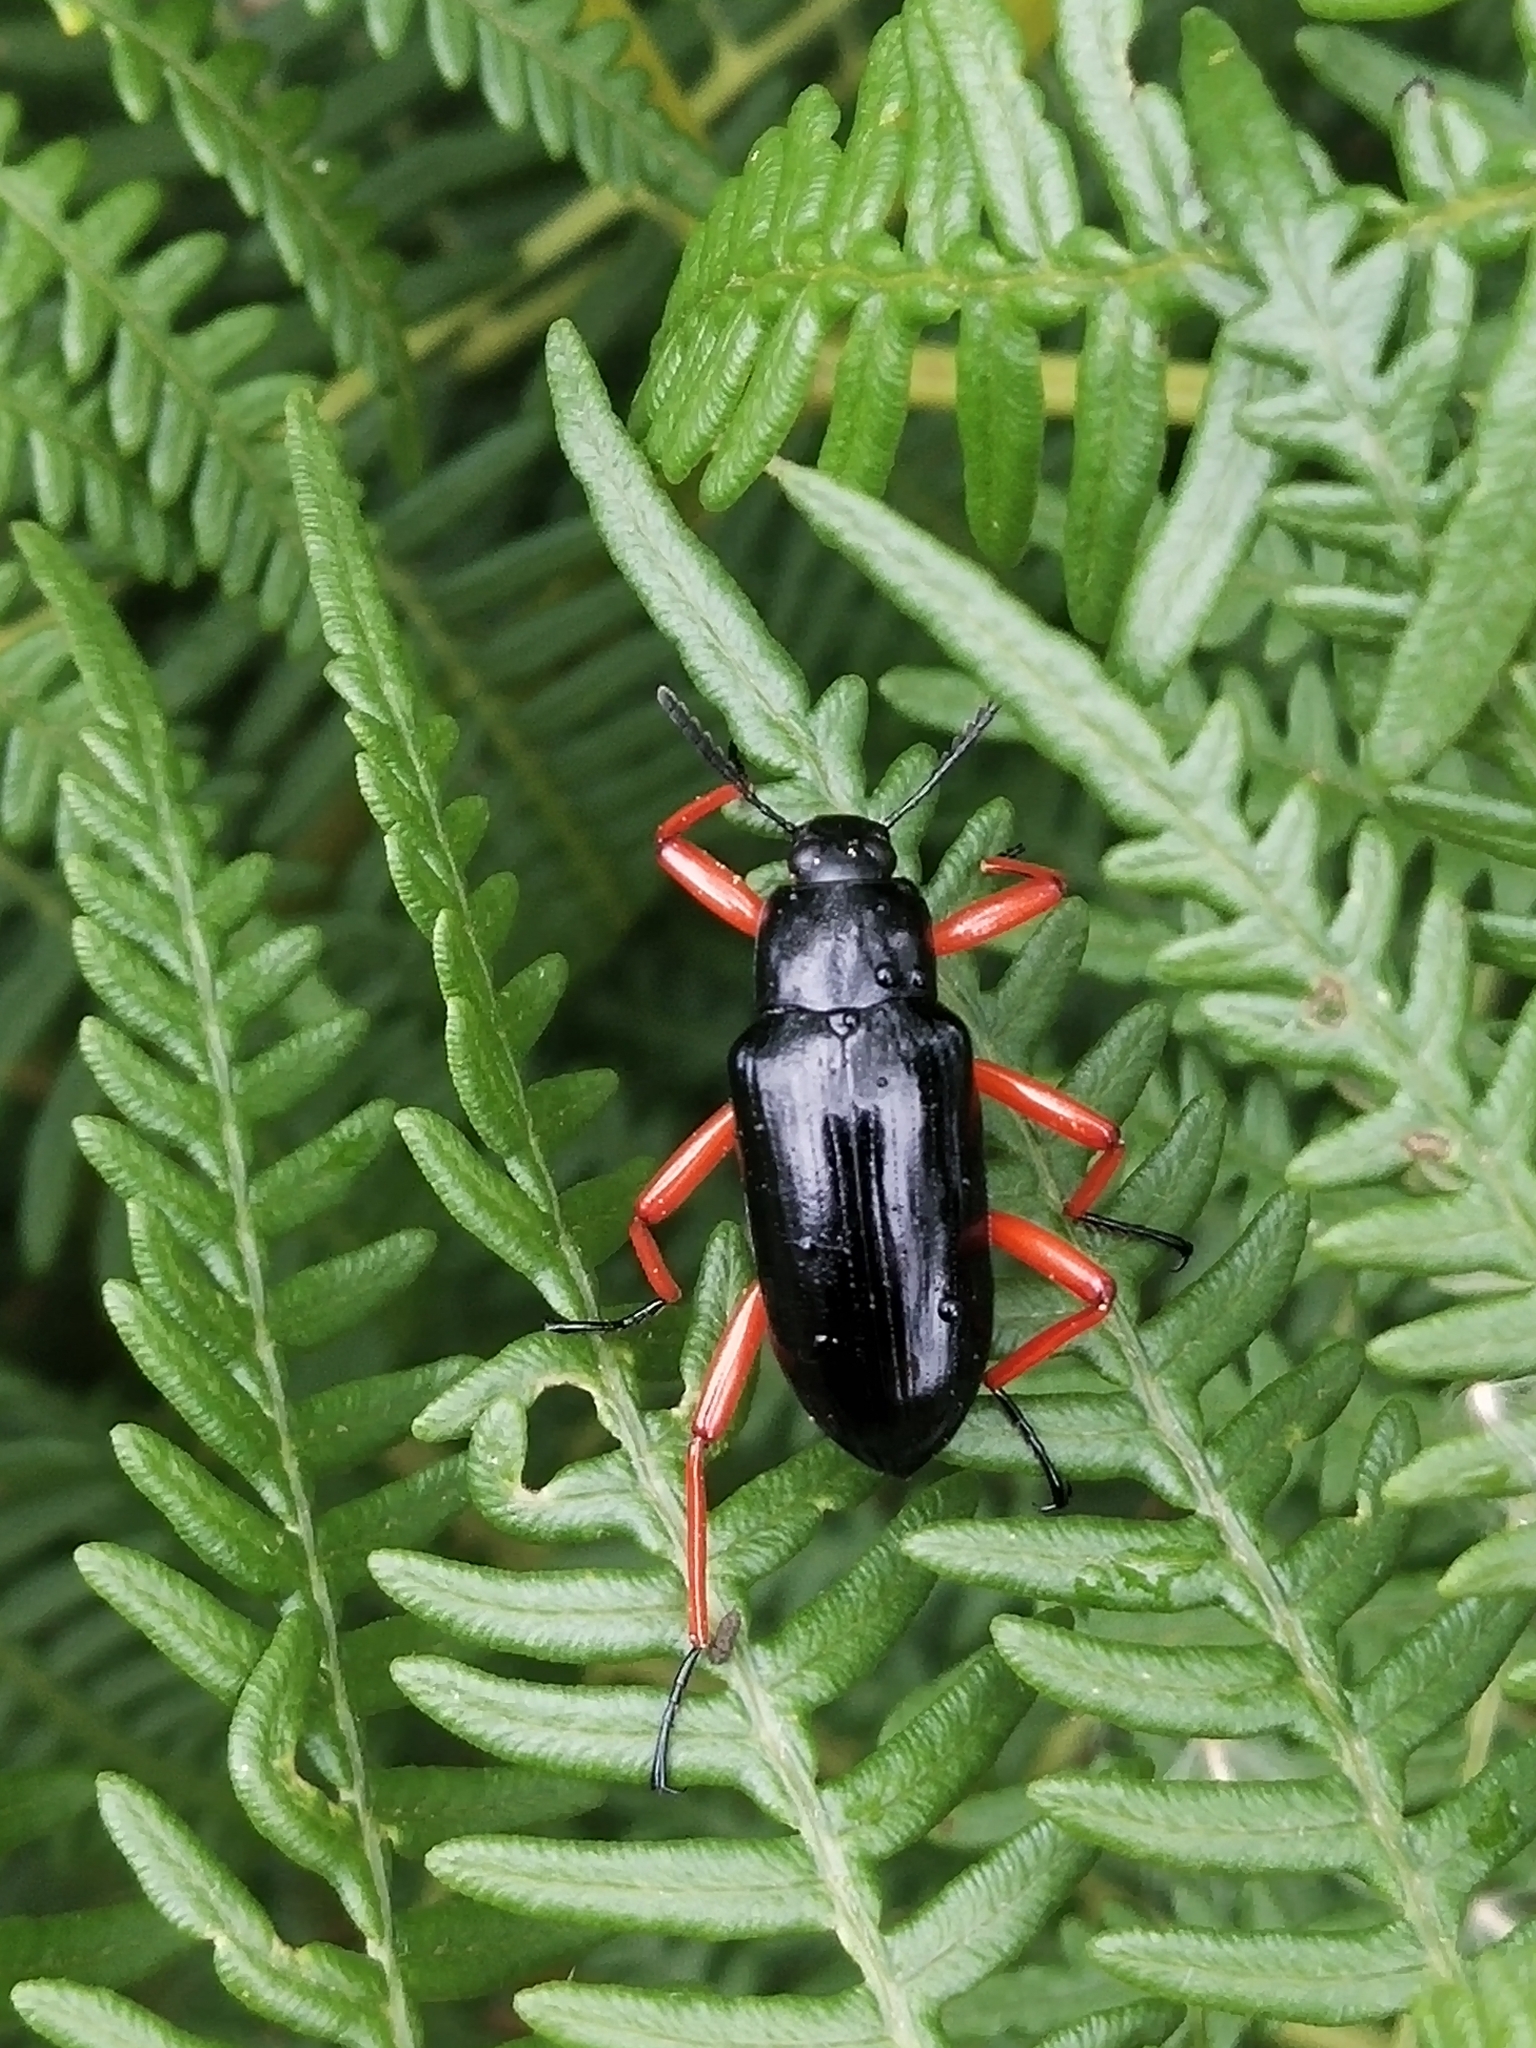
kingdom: Animalia
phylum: Arthropoda
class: Insecta
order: Coleoptera
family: Tenebrionidae
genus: Scotaeus
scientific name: Scotaeus
